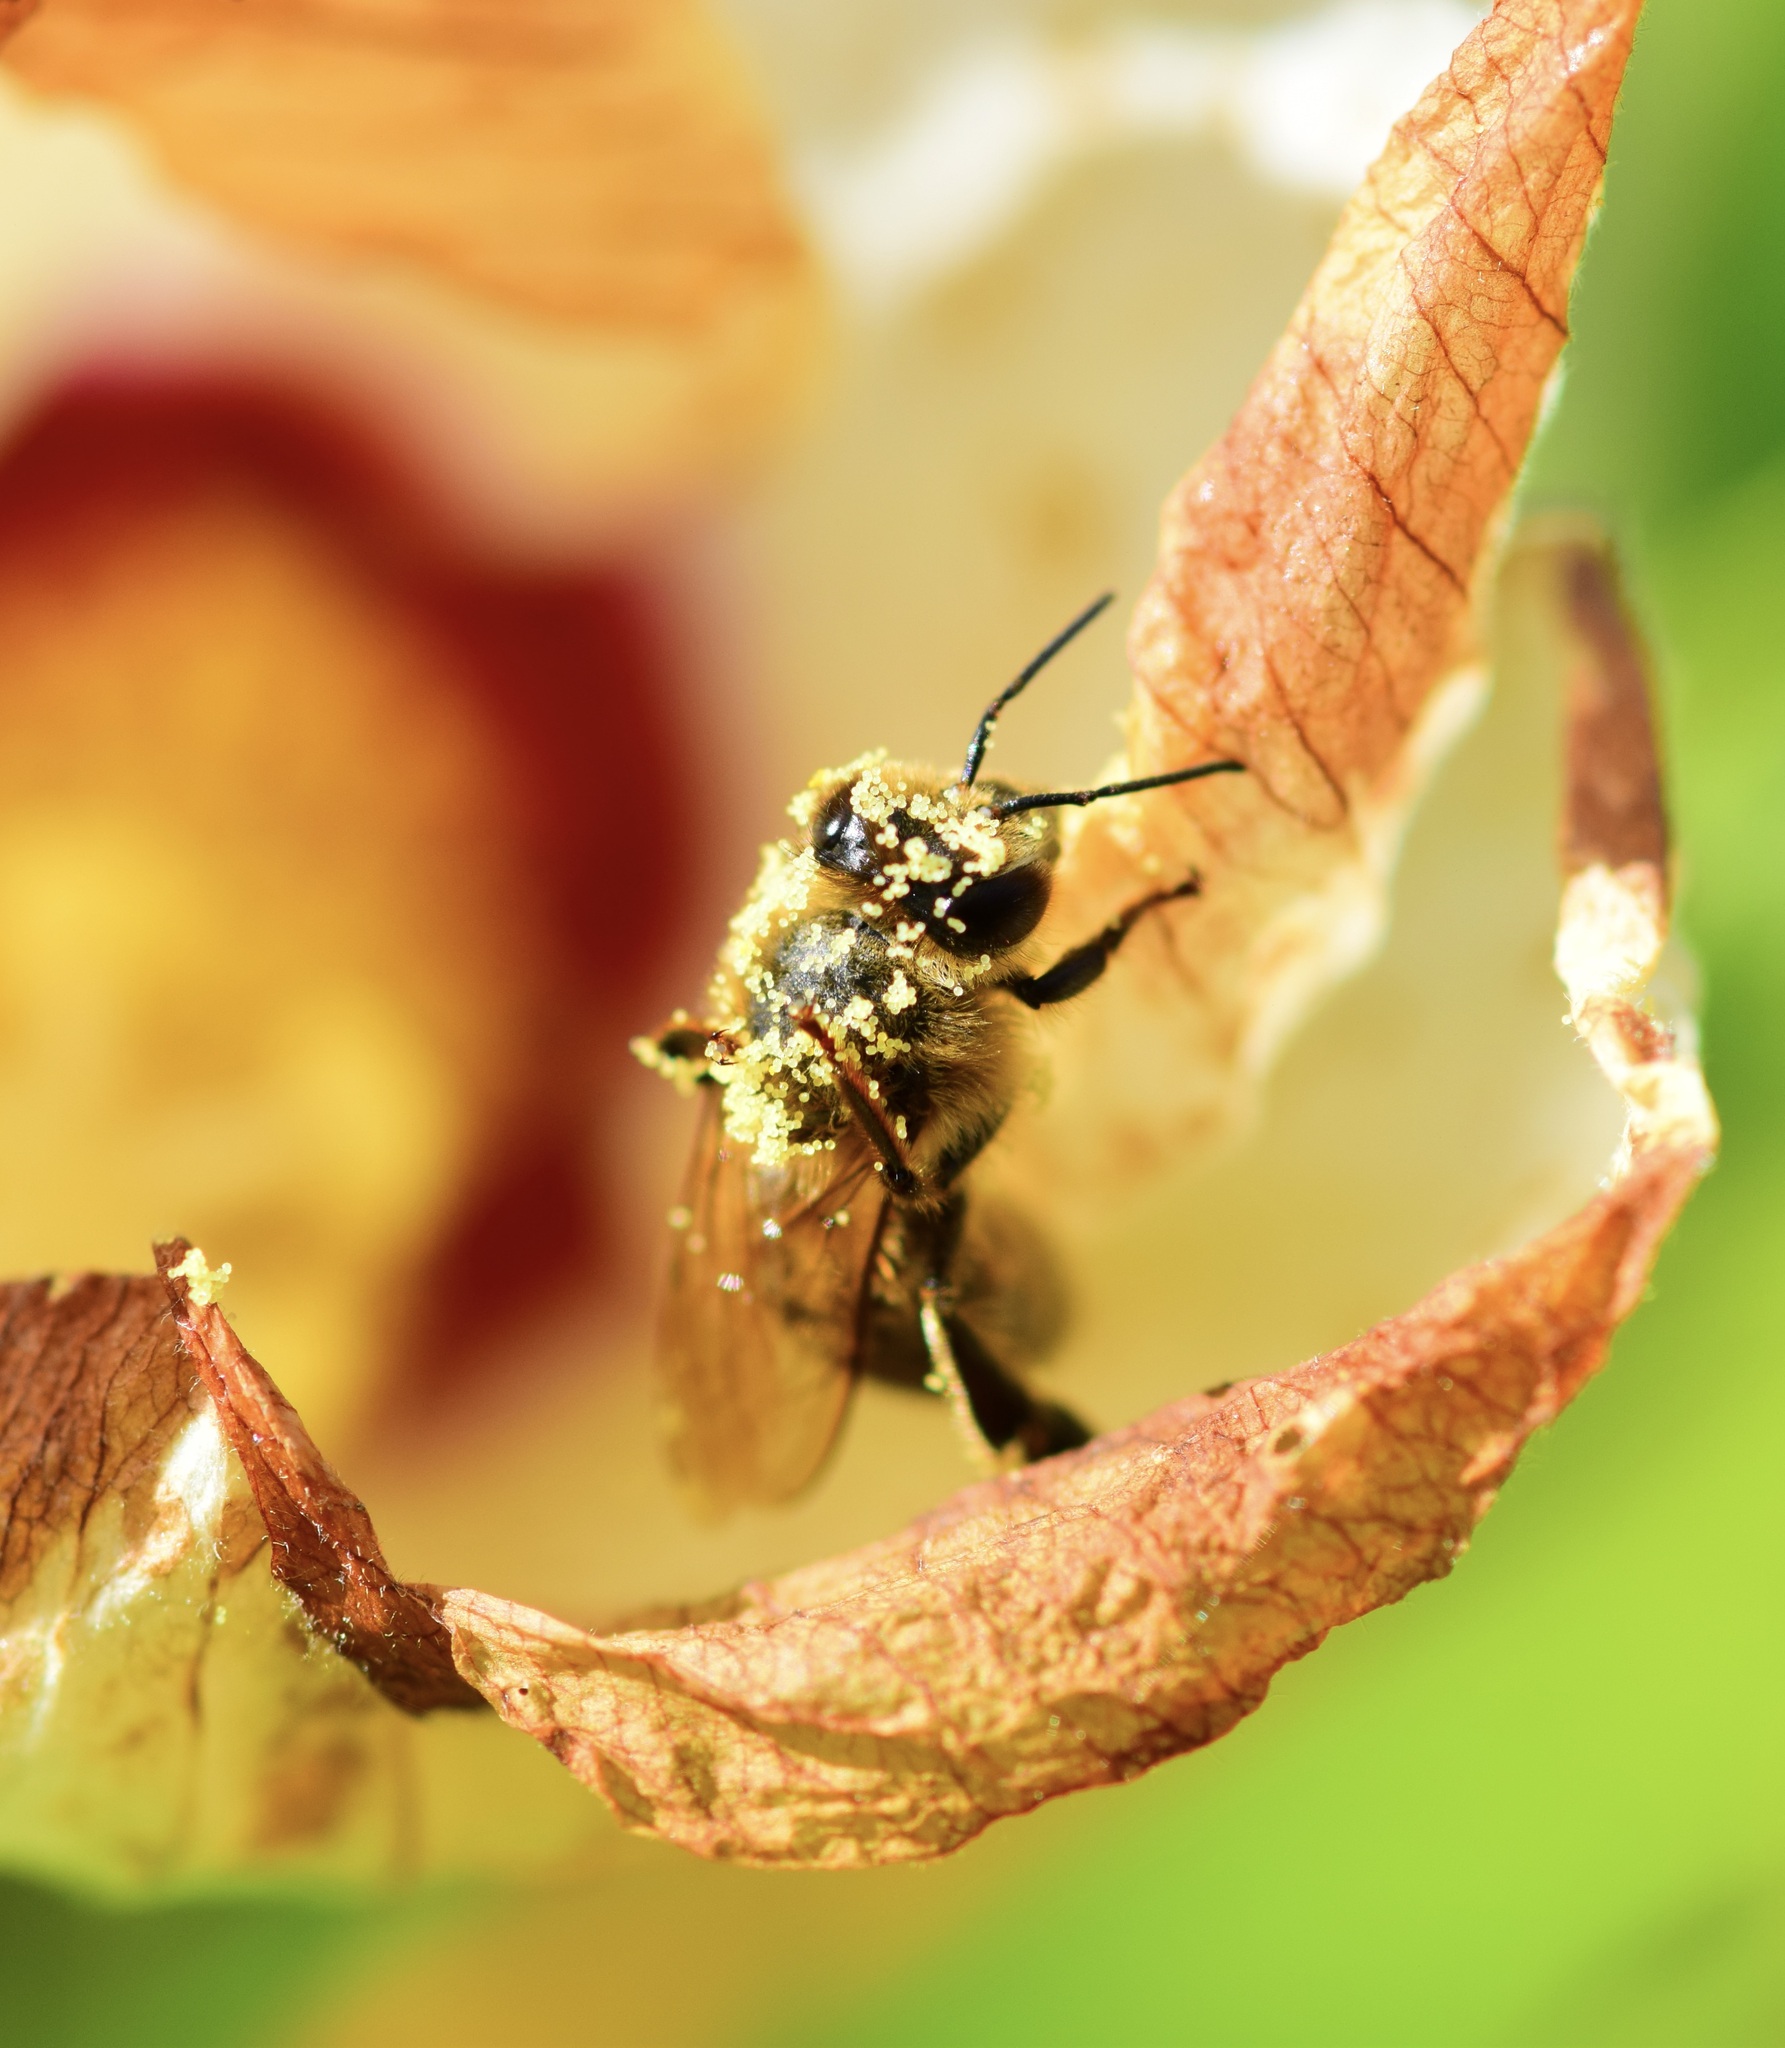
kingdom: Animalia
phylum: Arthropoda
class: Insecta
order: Hymenoptera
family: Apidae
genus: Apis
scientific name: Apis mellifera
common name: Honey bee
